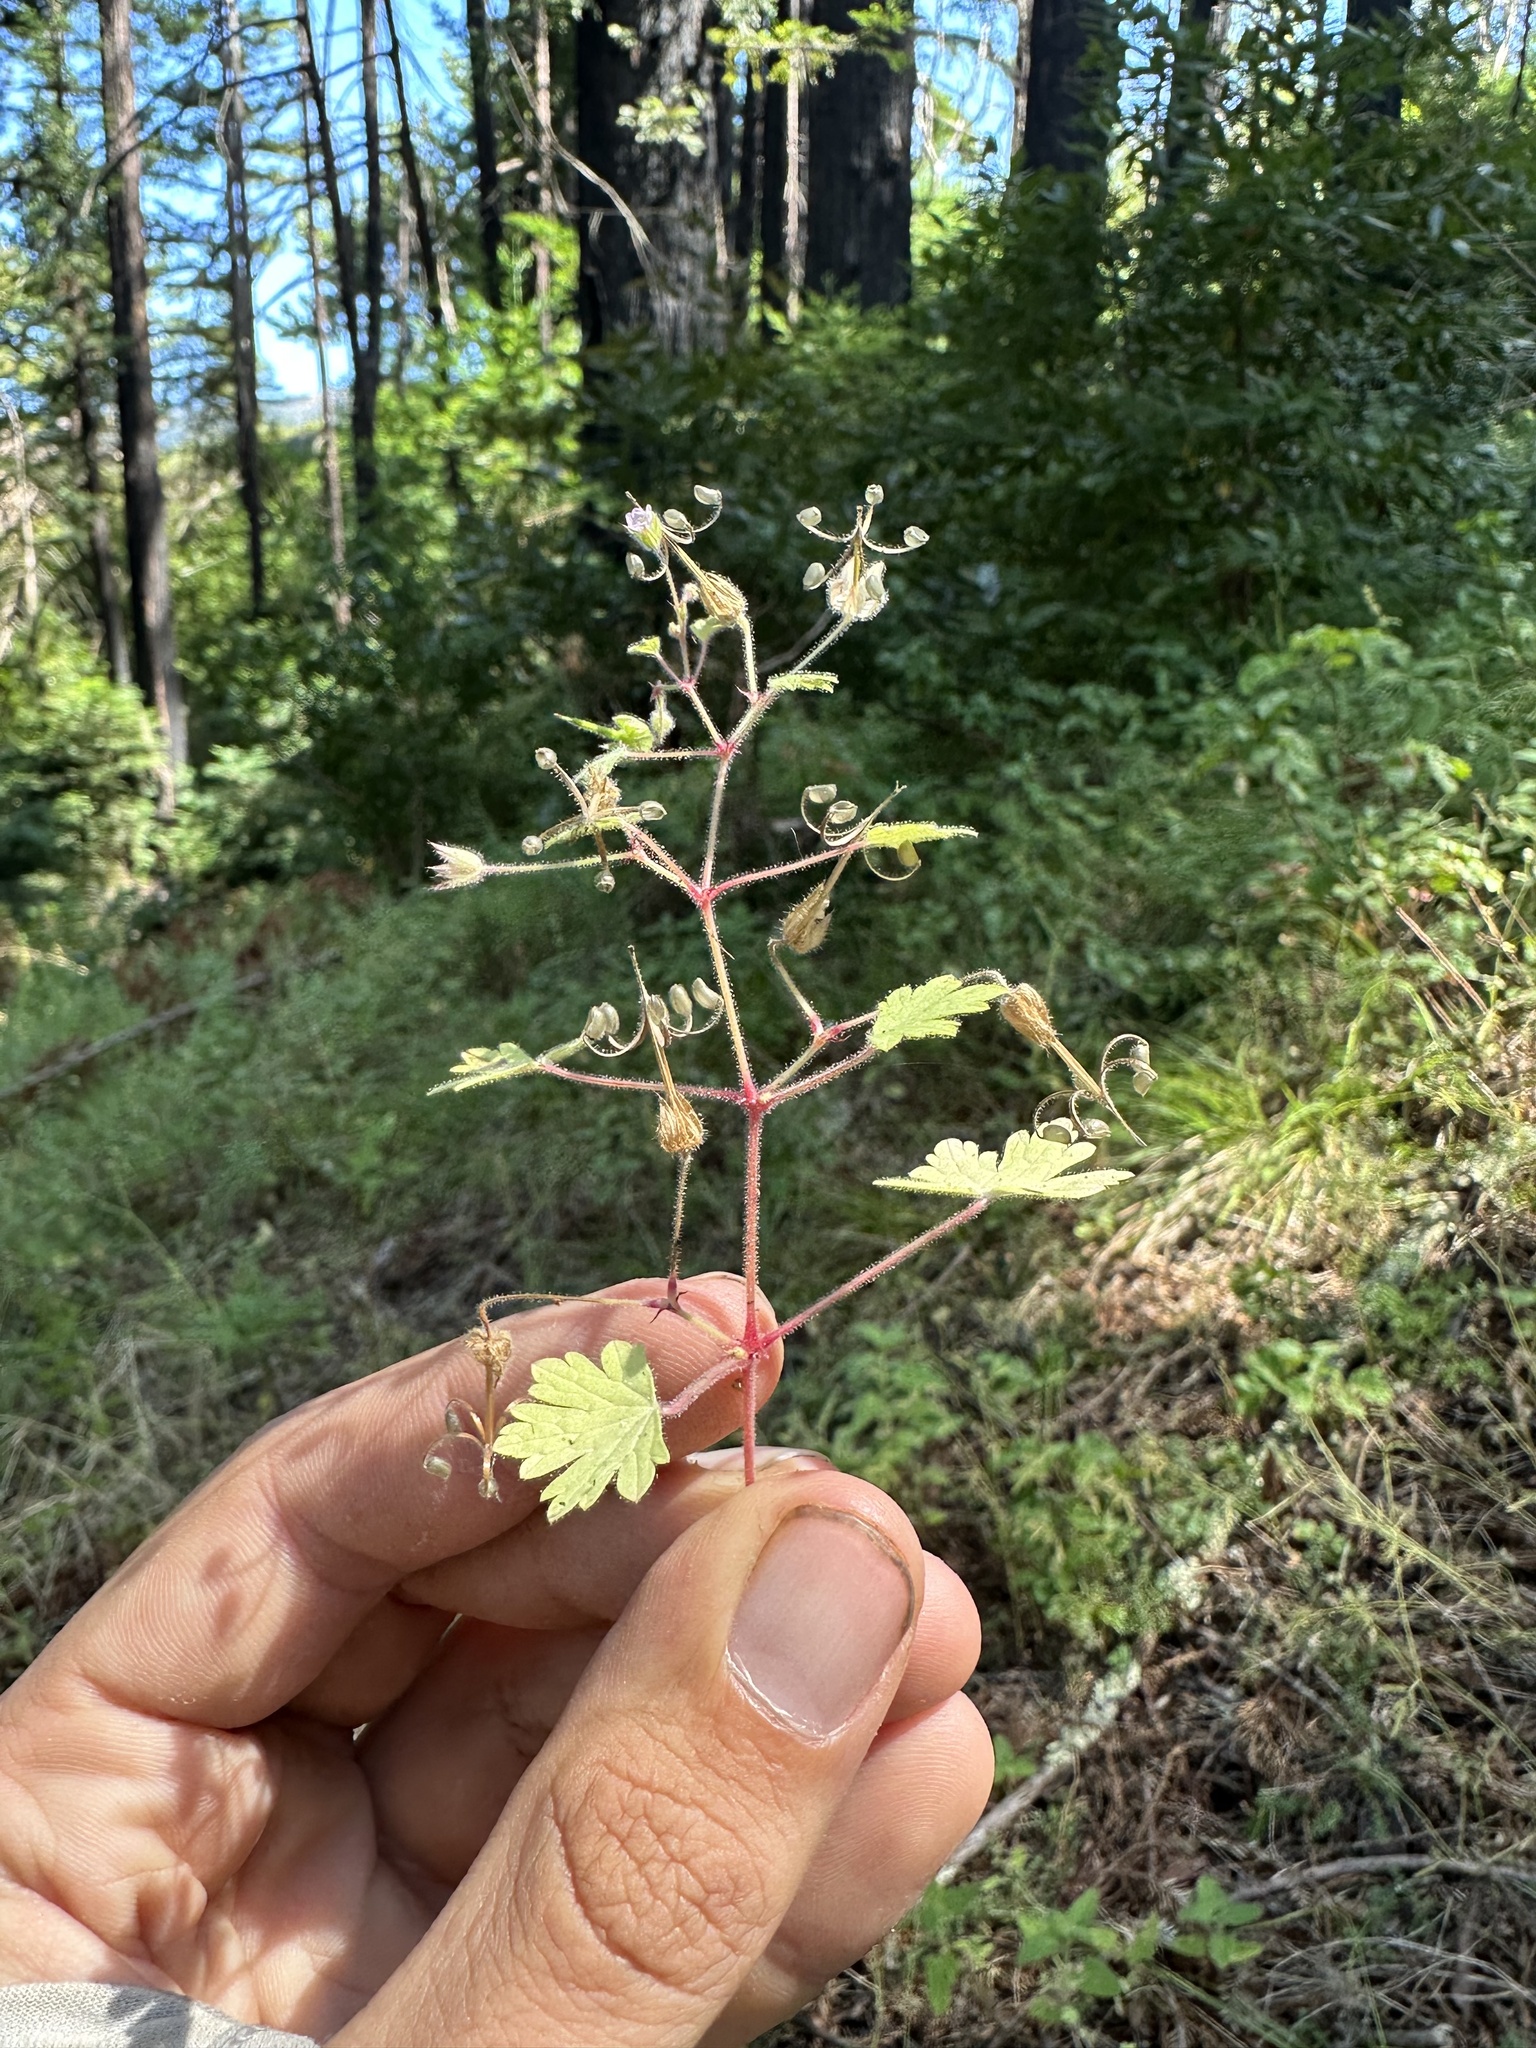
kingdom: Plantae
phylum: Tracheophyta
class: Magnoliopsida
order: Geraniales
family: Geraniaceae
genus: Geranium
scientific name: Geranium rotundifolium
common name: Round-leaved crane's-bill
